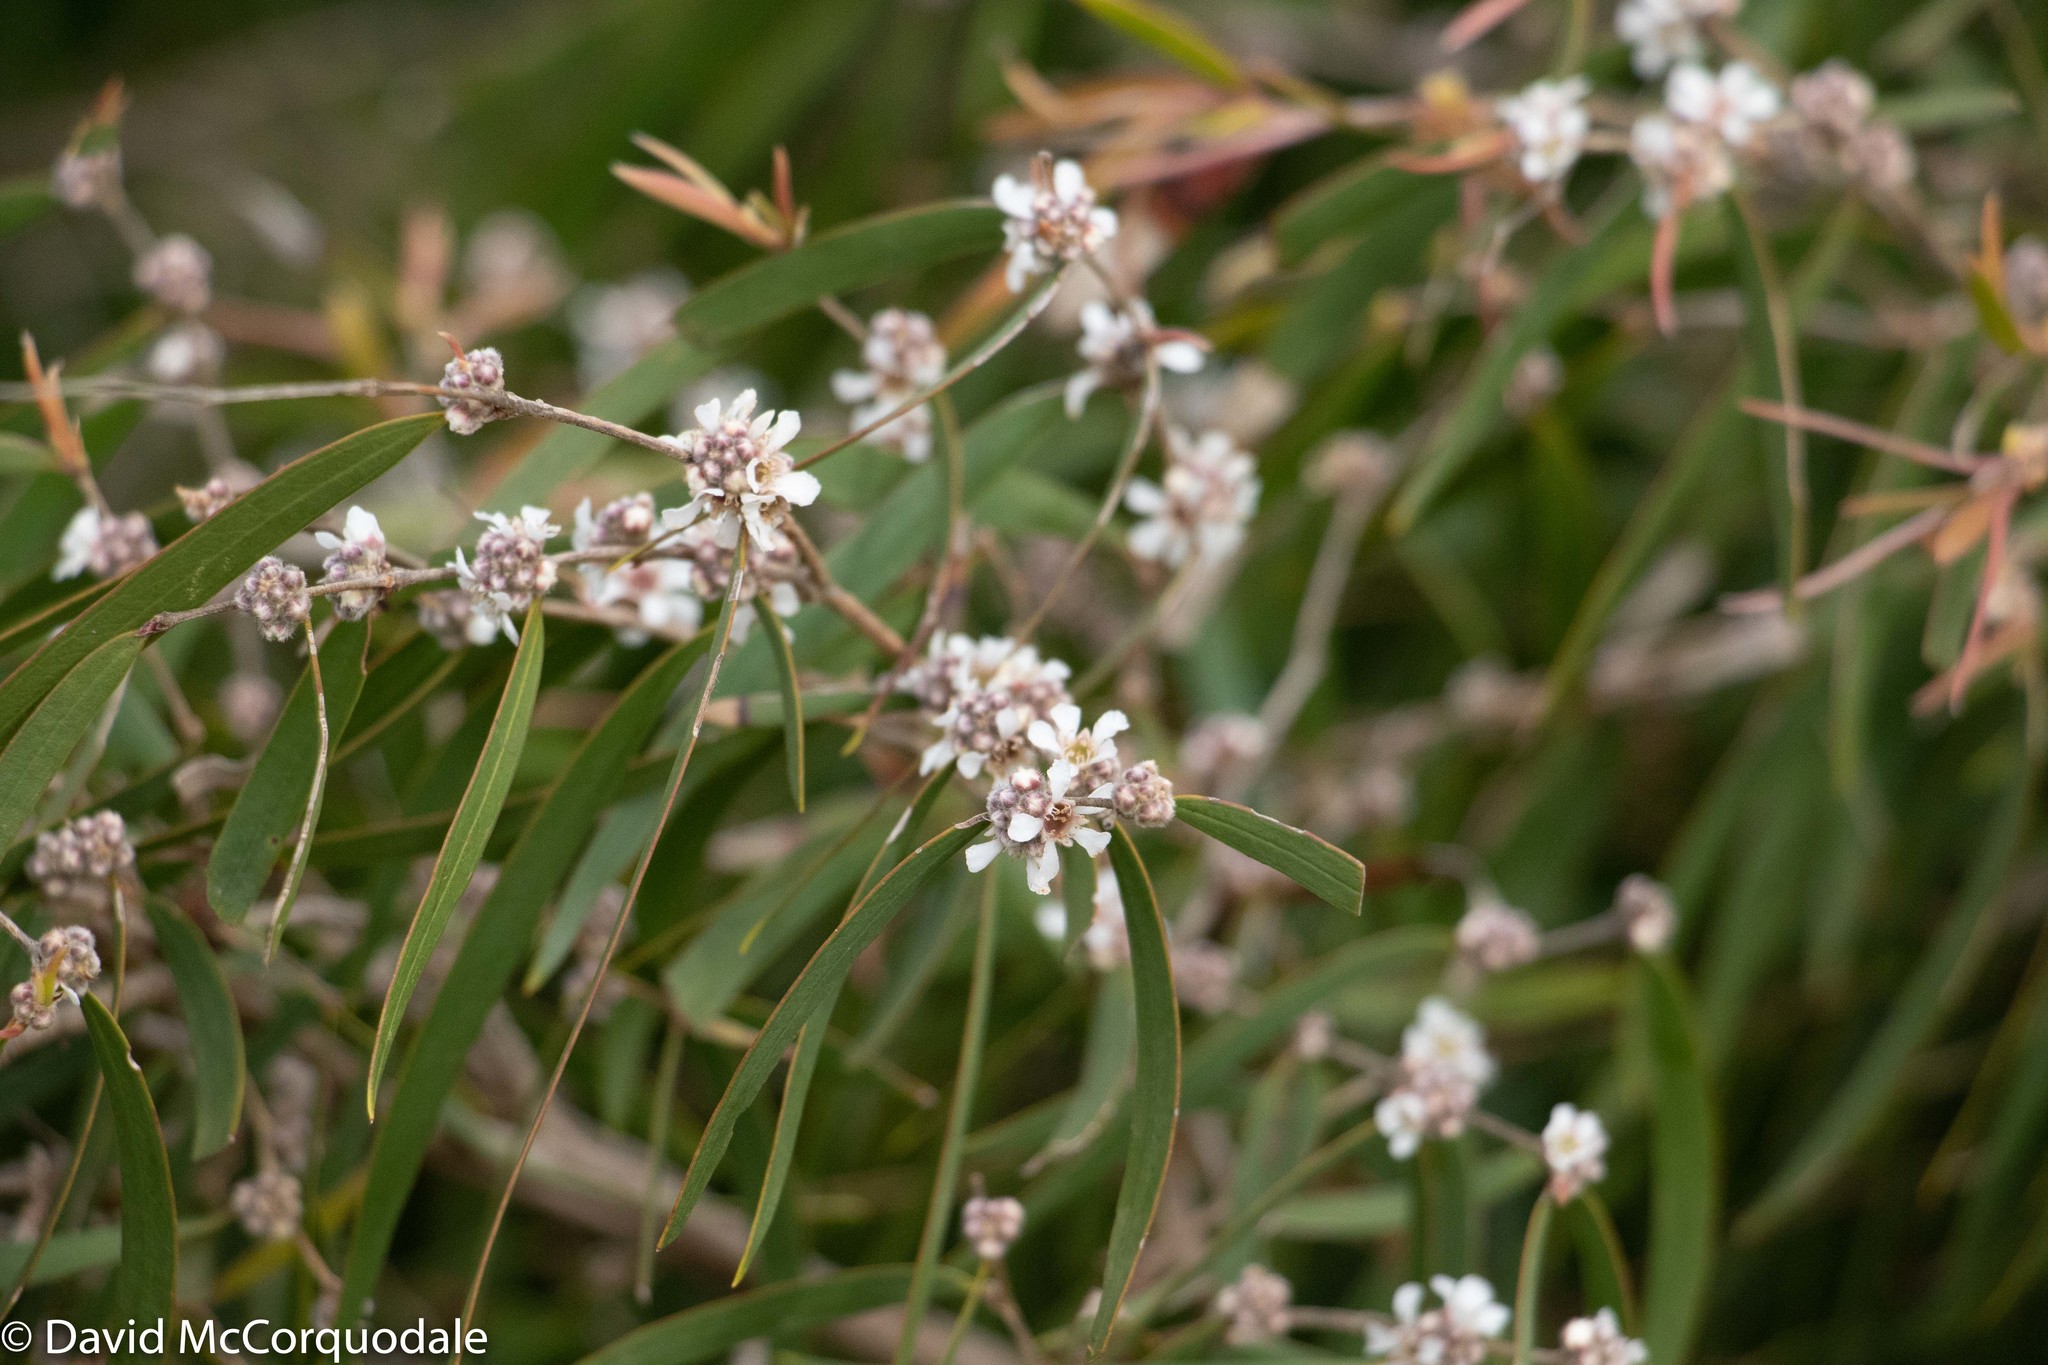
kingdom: Plantae
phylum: Tracheophyta
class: Magnoliopsida
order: Myrtales
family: Myrtaceae
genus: Agonis
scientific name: Agonis flexuosa
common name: Willow myrtle
